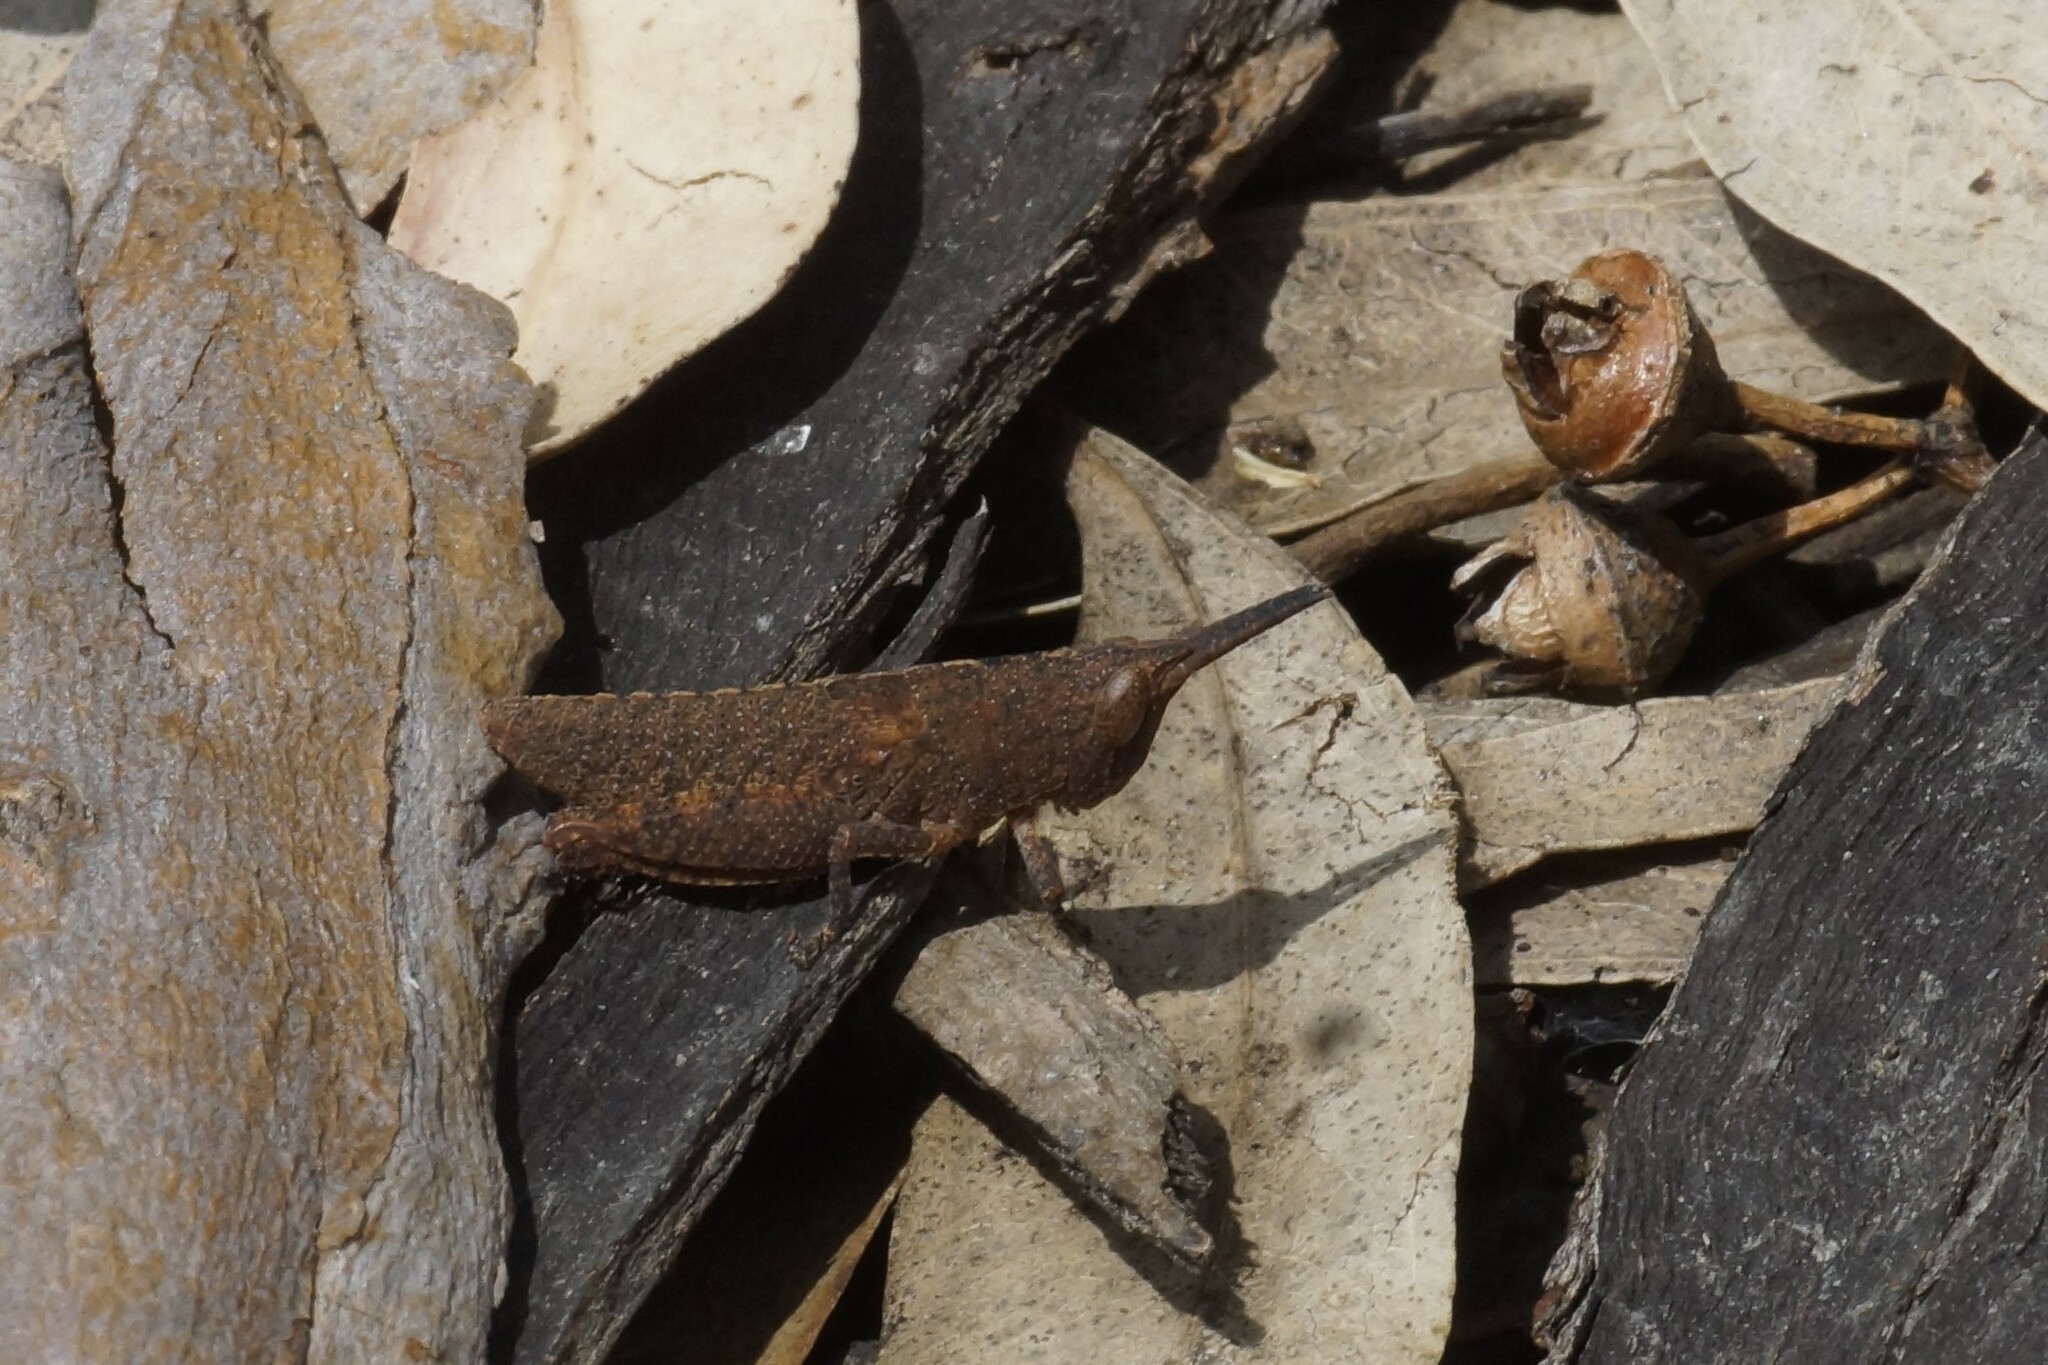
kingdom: Animalia
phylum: Arthropoda
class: Insecta
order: Orthoptera
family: Acrididae
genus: Goniaea
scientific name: Goniaea opomaloides
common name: Mimetic gumleaf grasshopper
